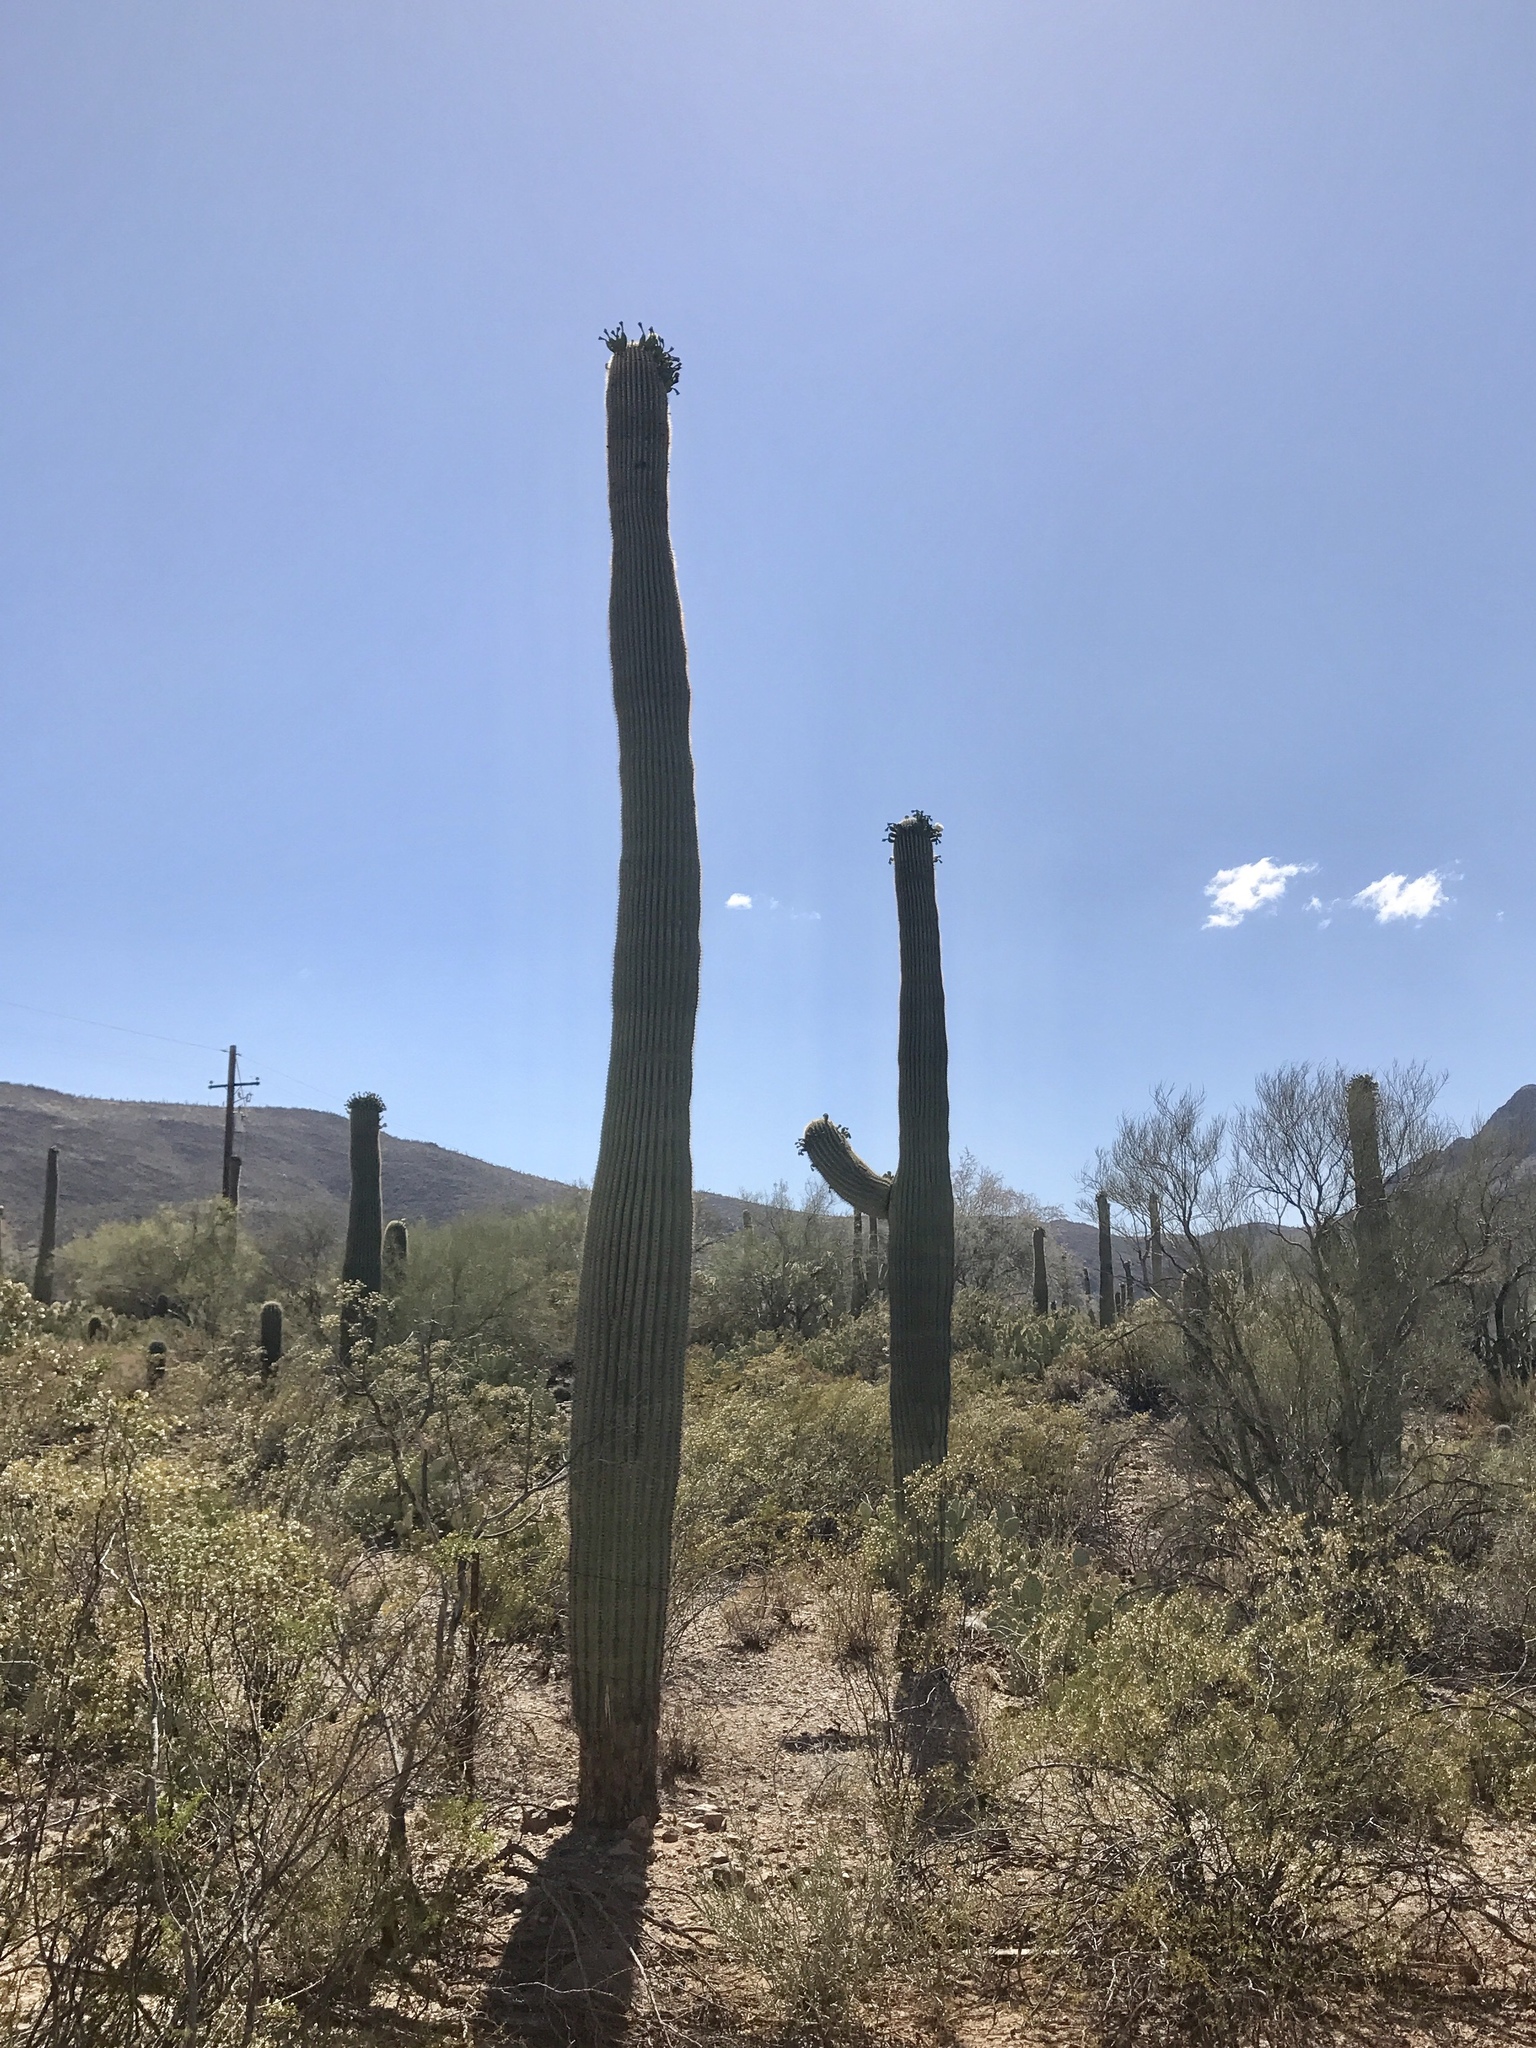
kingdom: Plantae
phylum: Tracheophyta
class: Magnoliopsida
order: Caryophyllales
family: Cactaceae
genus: Carnegiea
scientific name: Carnegiea gigantea
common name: Saguaro
